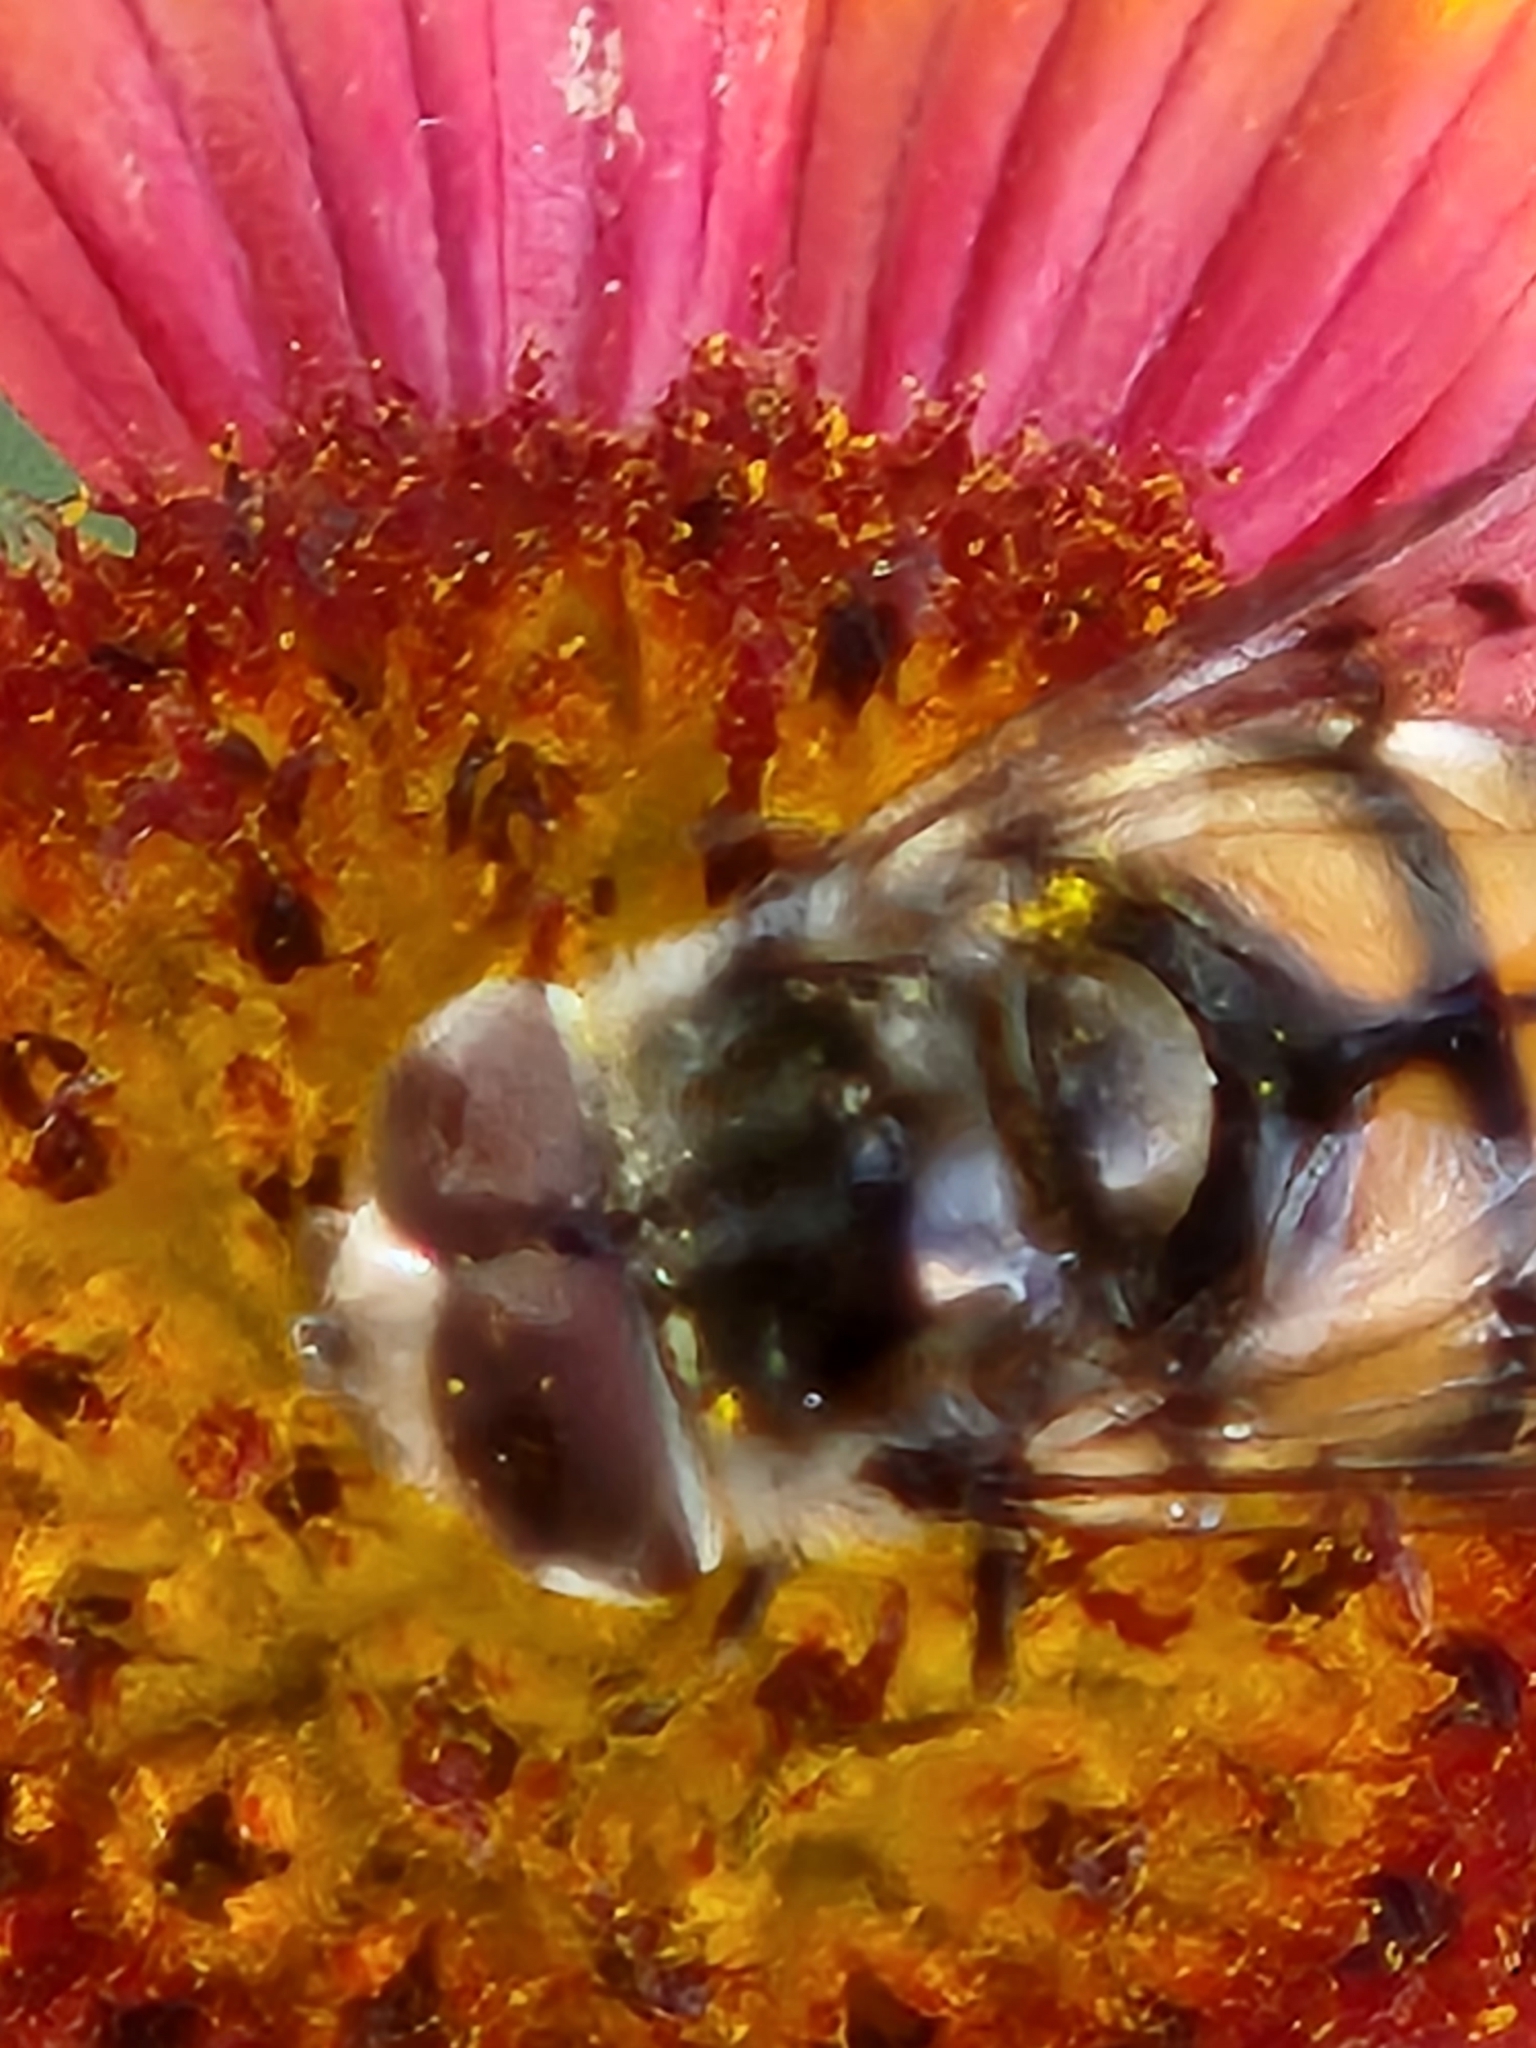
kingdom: Animalia
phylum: Arthropoda
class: Insecta
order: Diptera
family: Syrphidae
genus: Copestylum
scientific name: Copestylum avidum
